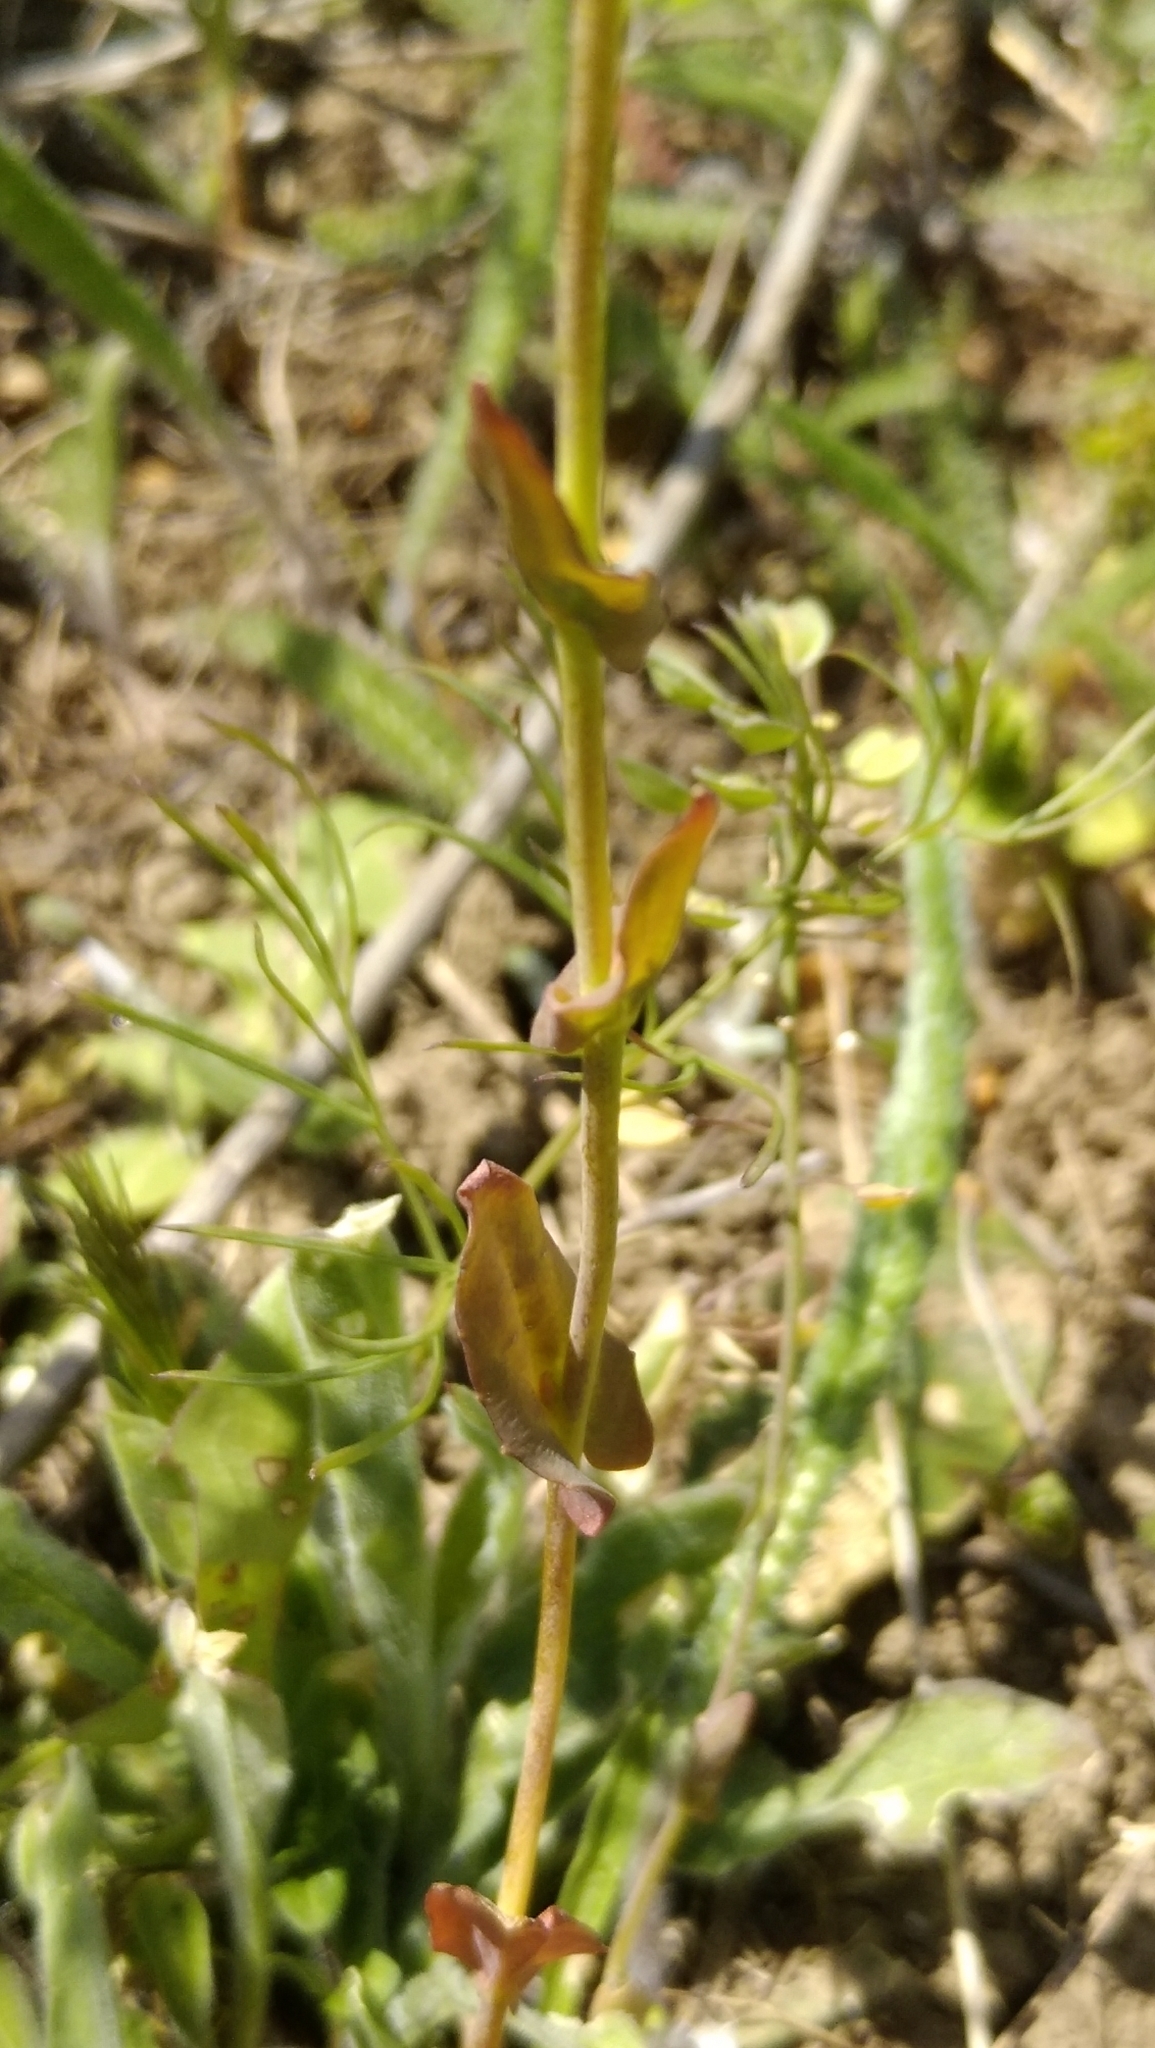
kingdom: Plantae
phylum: Tracheophyta
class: Magnoliopsida
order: Brassicales
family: Brassicaceae
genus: Noccaea
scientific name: Noccaea perfoliata
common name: Perfoliate pennycress
